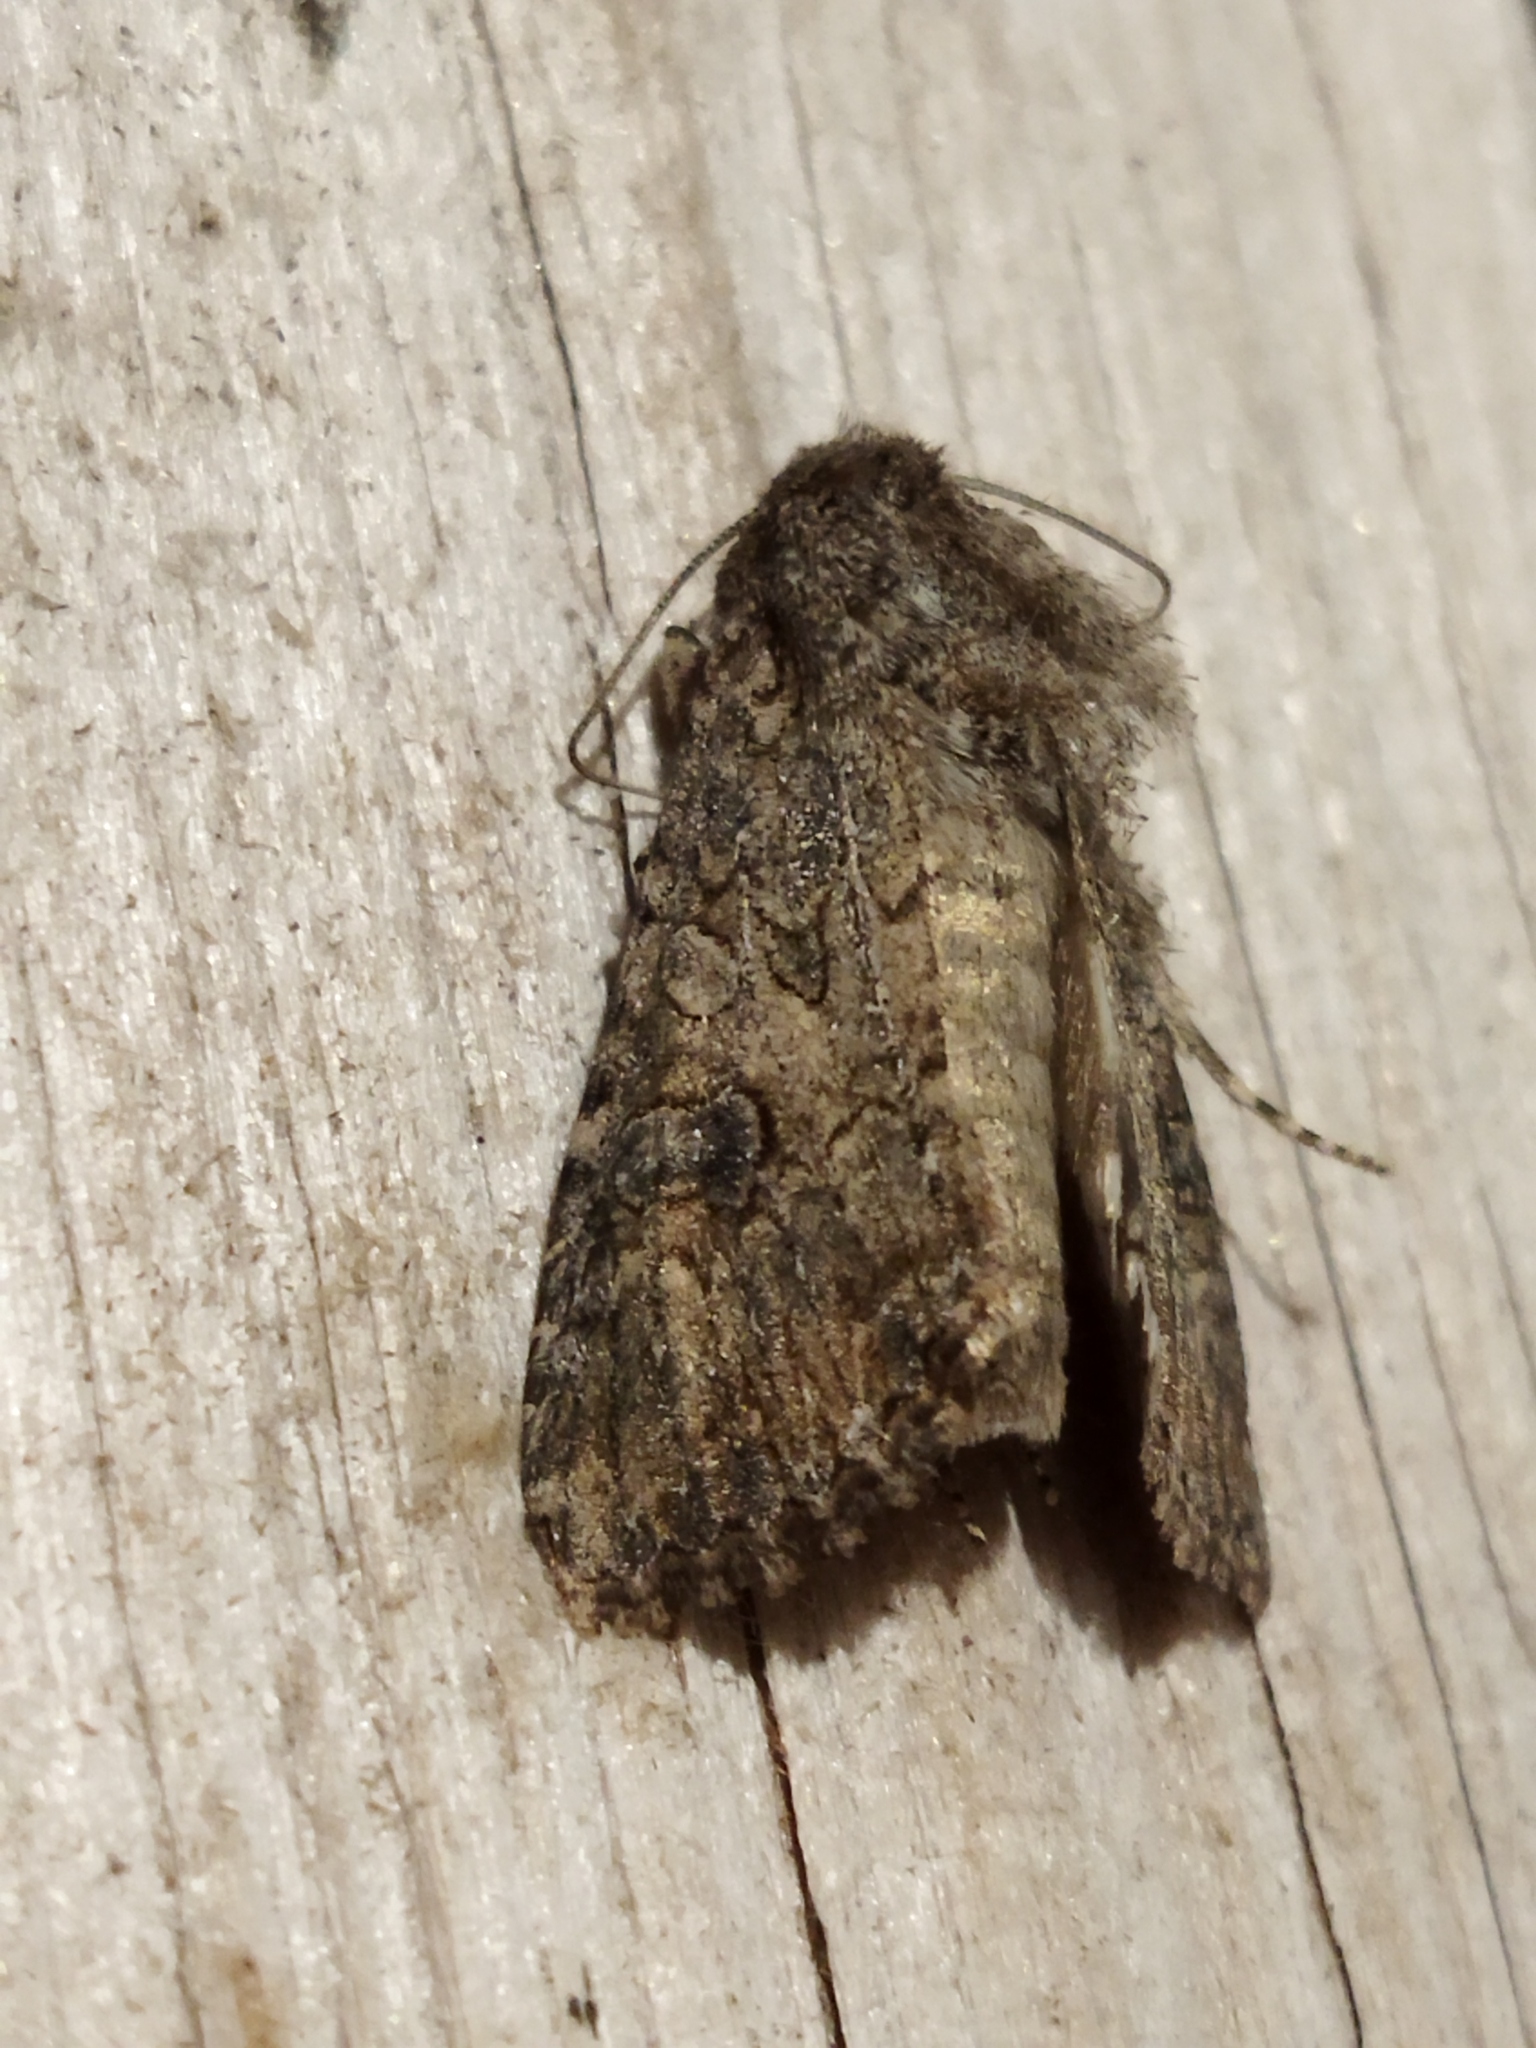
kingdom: Animalia
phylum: Arthropoda
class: Insecta
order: Lepidoptera
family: Noctuidae
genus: Anarta
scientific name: Anarta trifolii
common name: Clover cutworm moth
